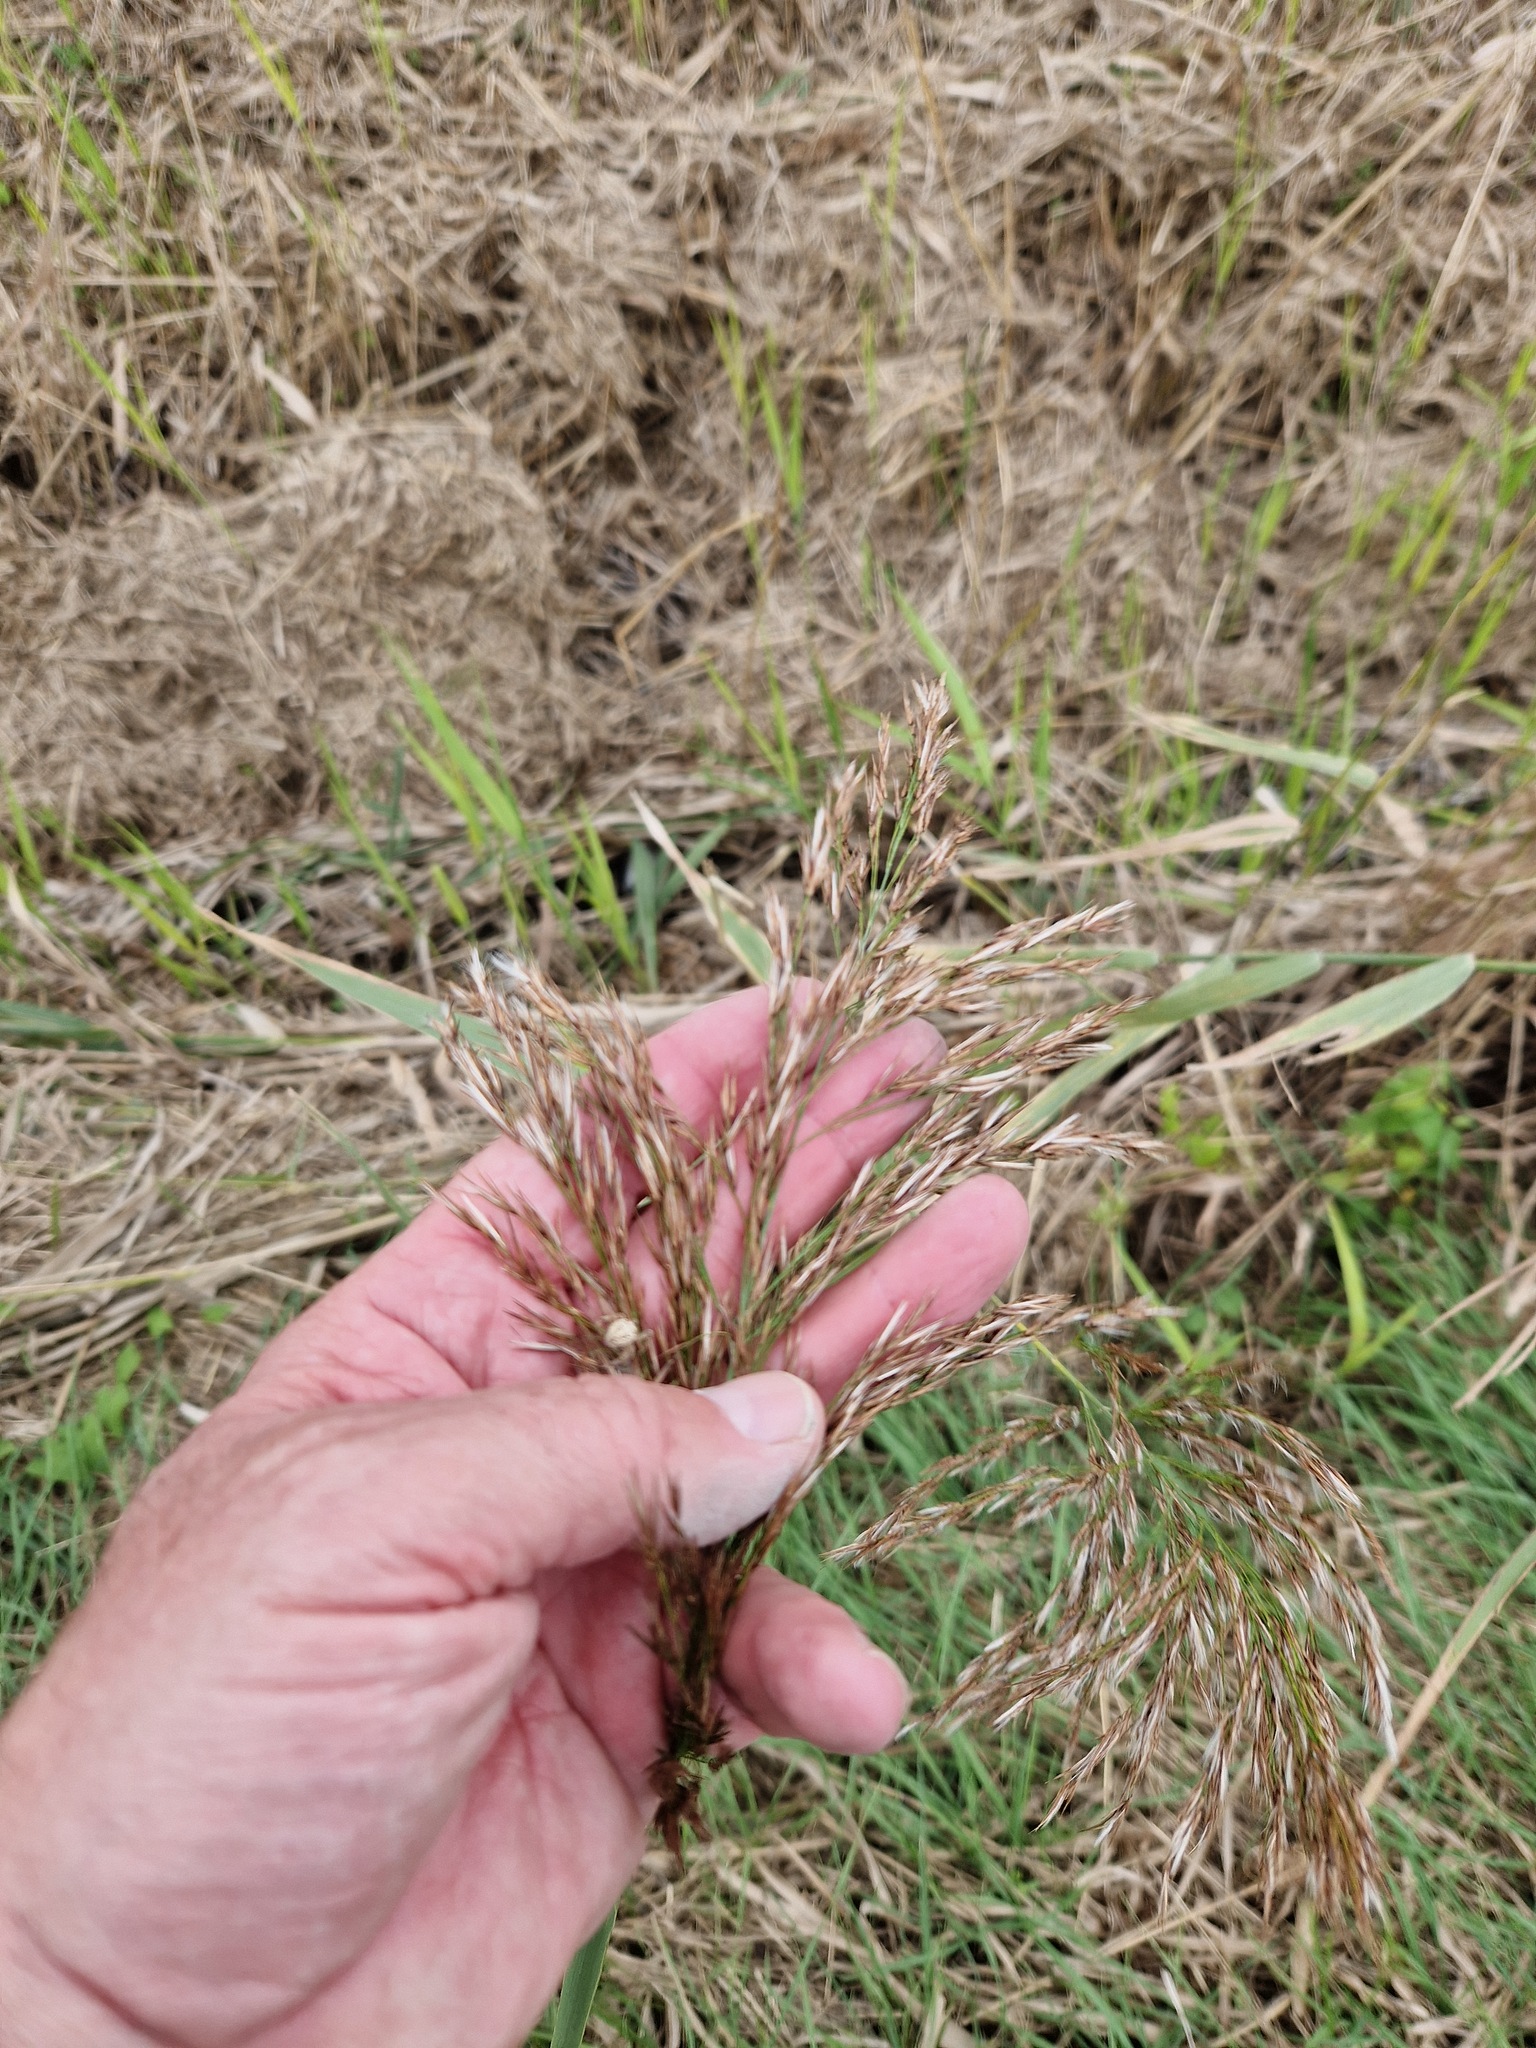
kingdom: Plantae
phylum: Tracheophyta
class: Liliopsida
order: Poales
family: Poaceae
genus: Phragmites
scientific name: Phragmites australis
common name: Common reed
